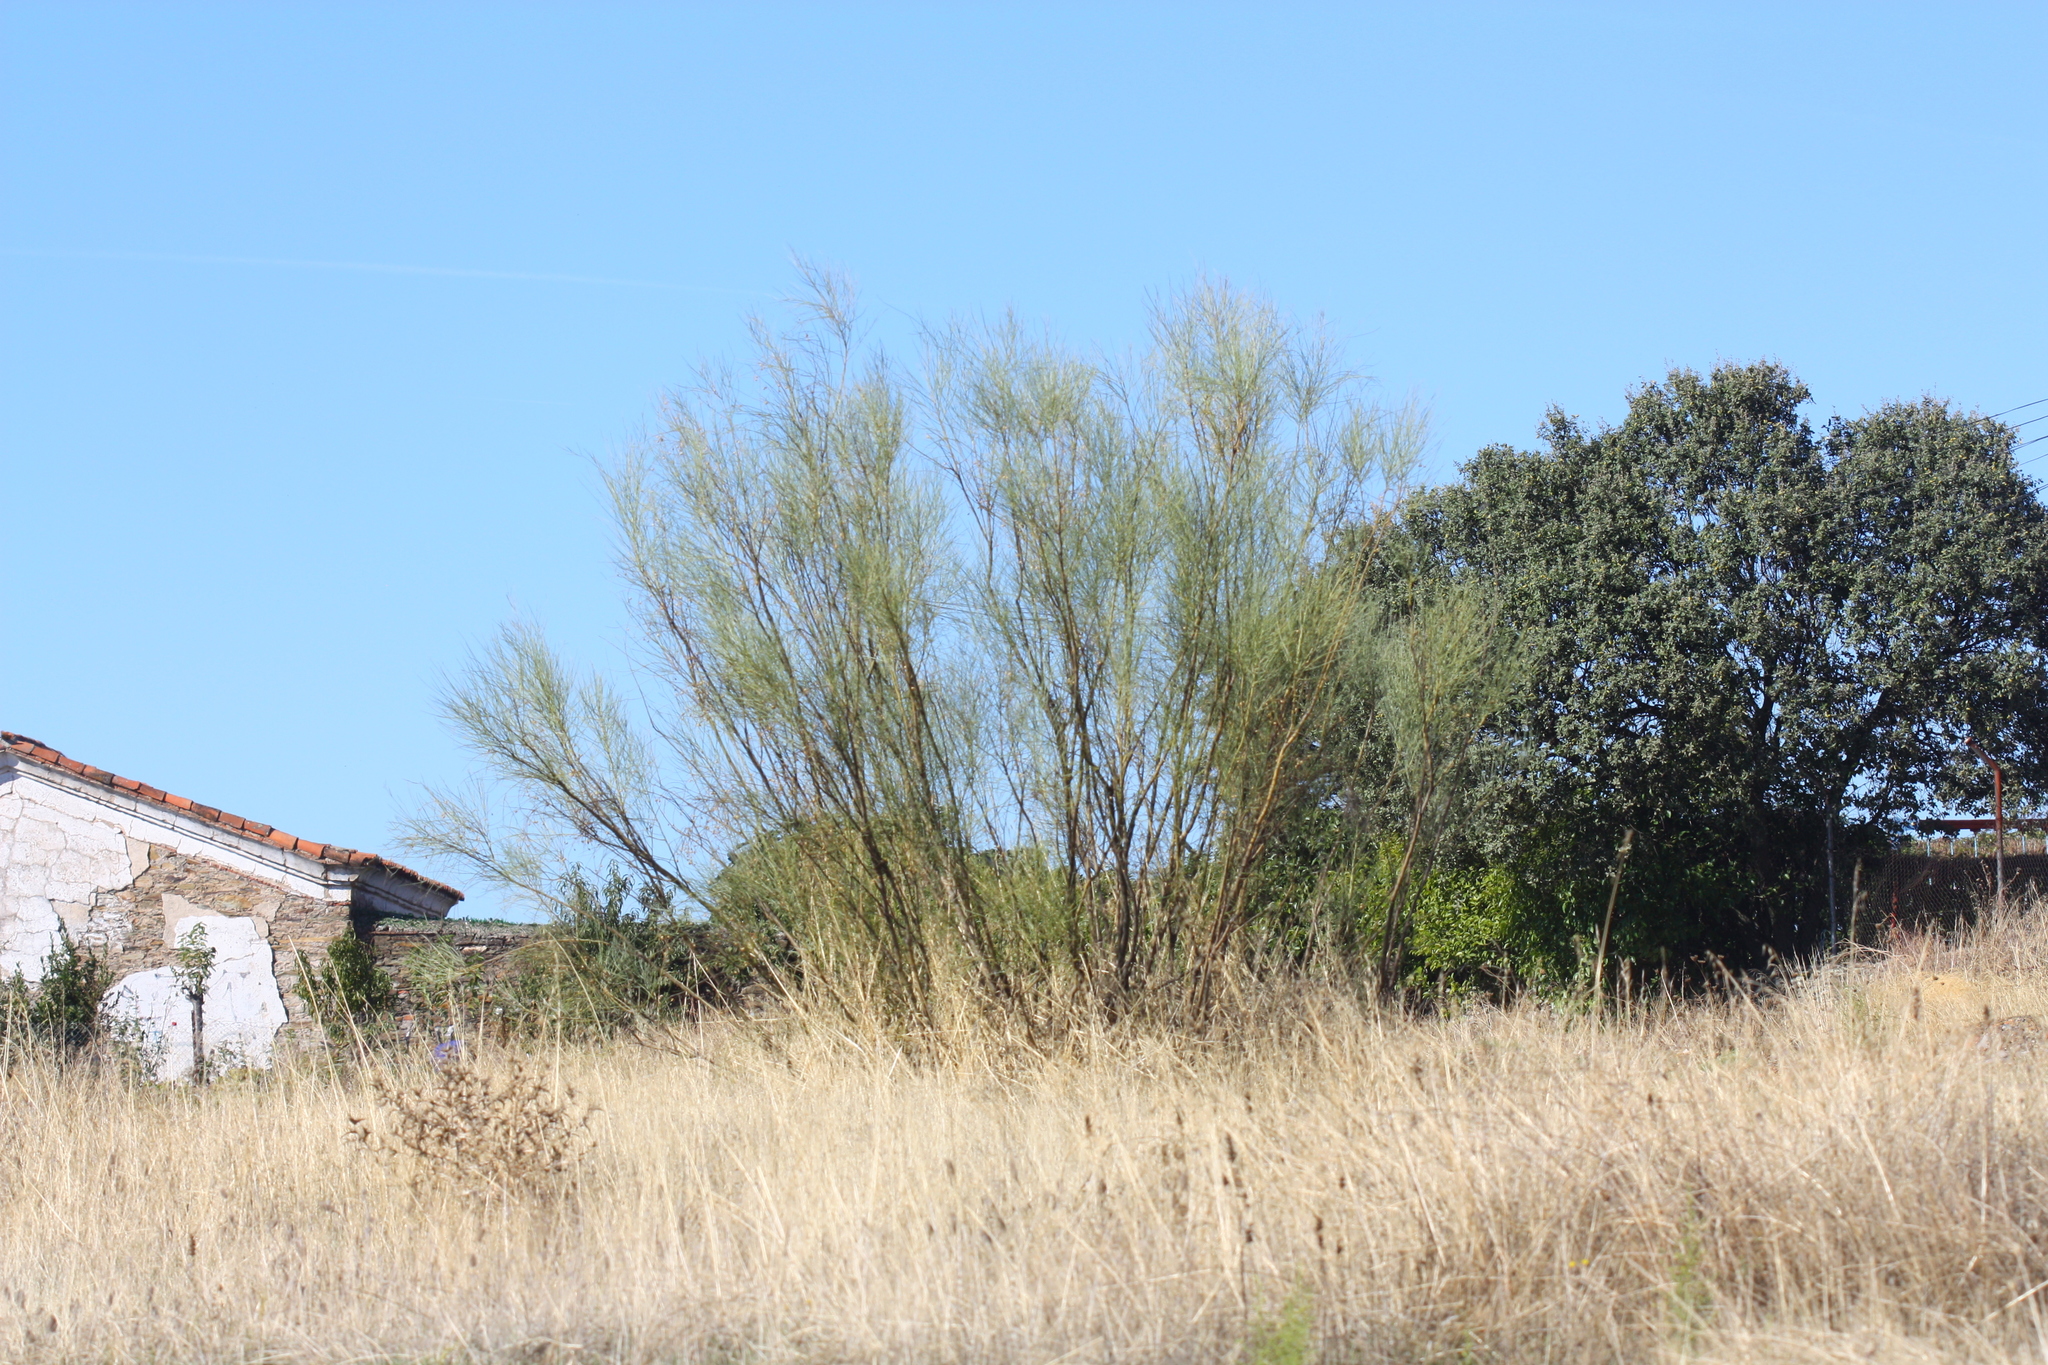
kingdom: Plantae
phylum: Tracheophyta
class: Magnoliopsida
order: Fabales
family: Fabaceae
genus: Retama
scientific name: Retama sphaerocarpa
